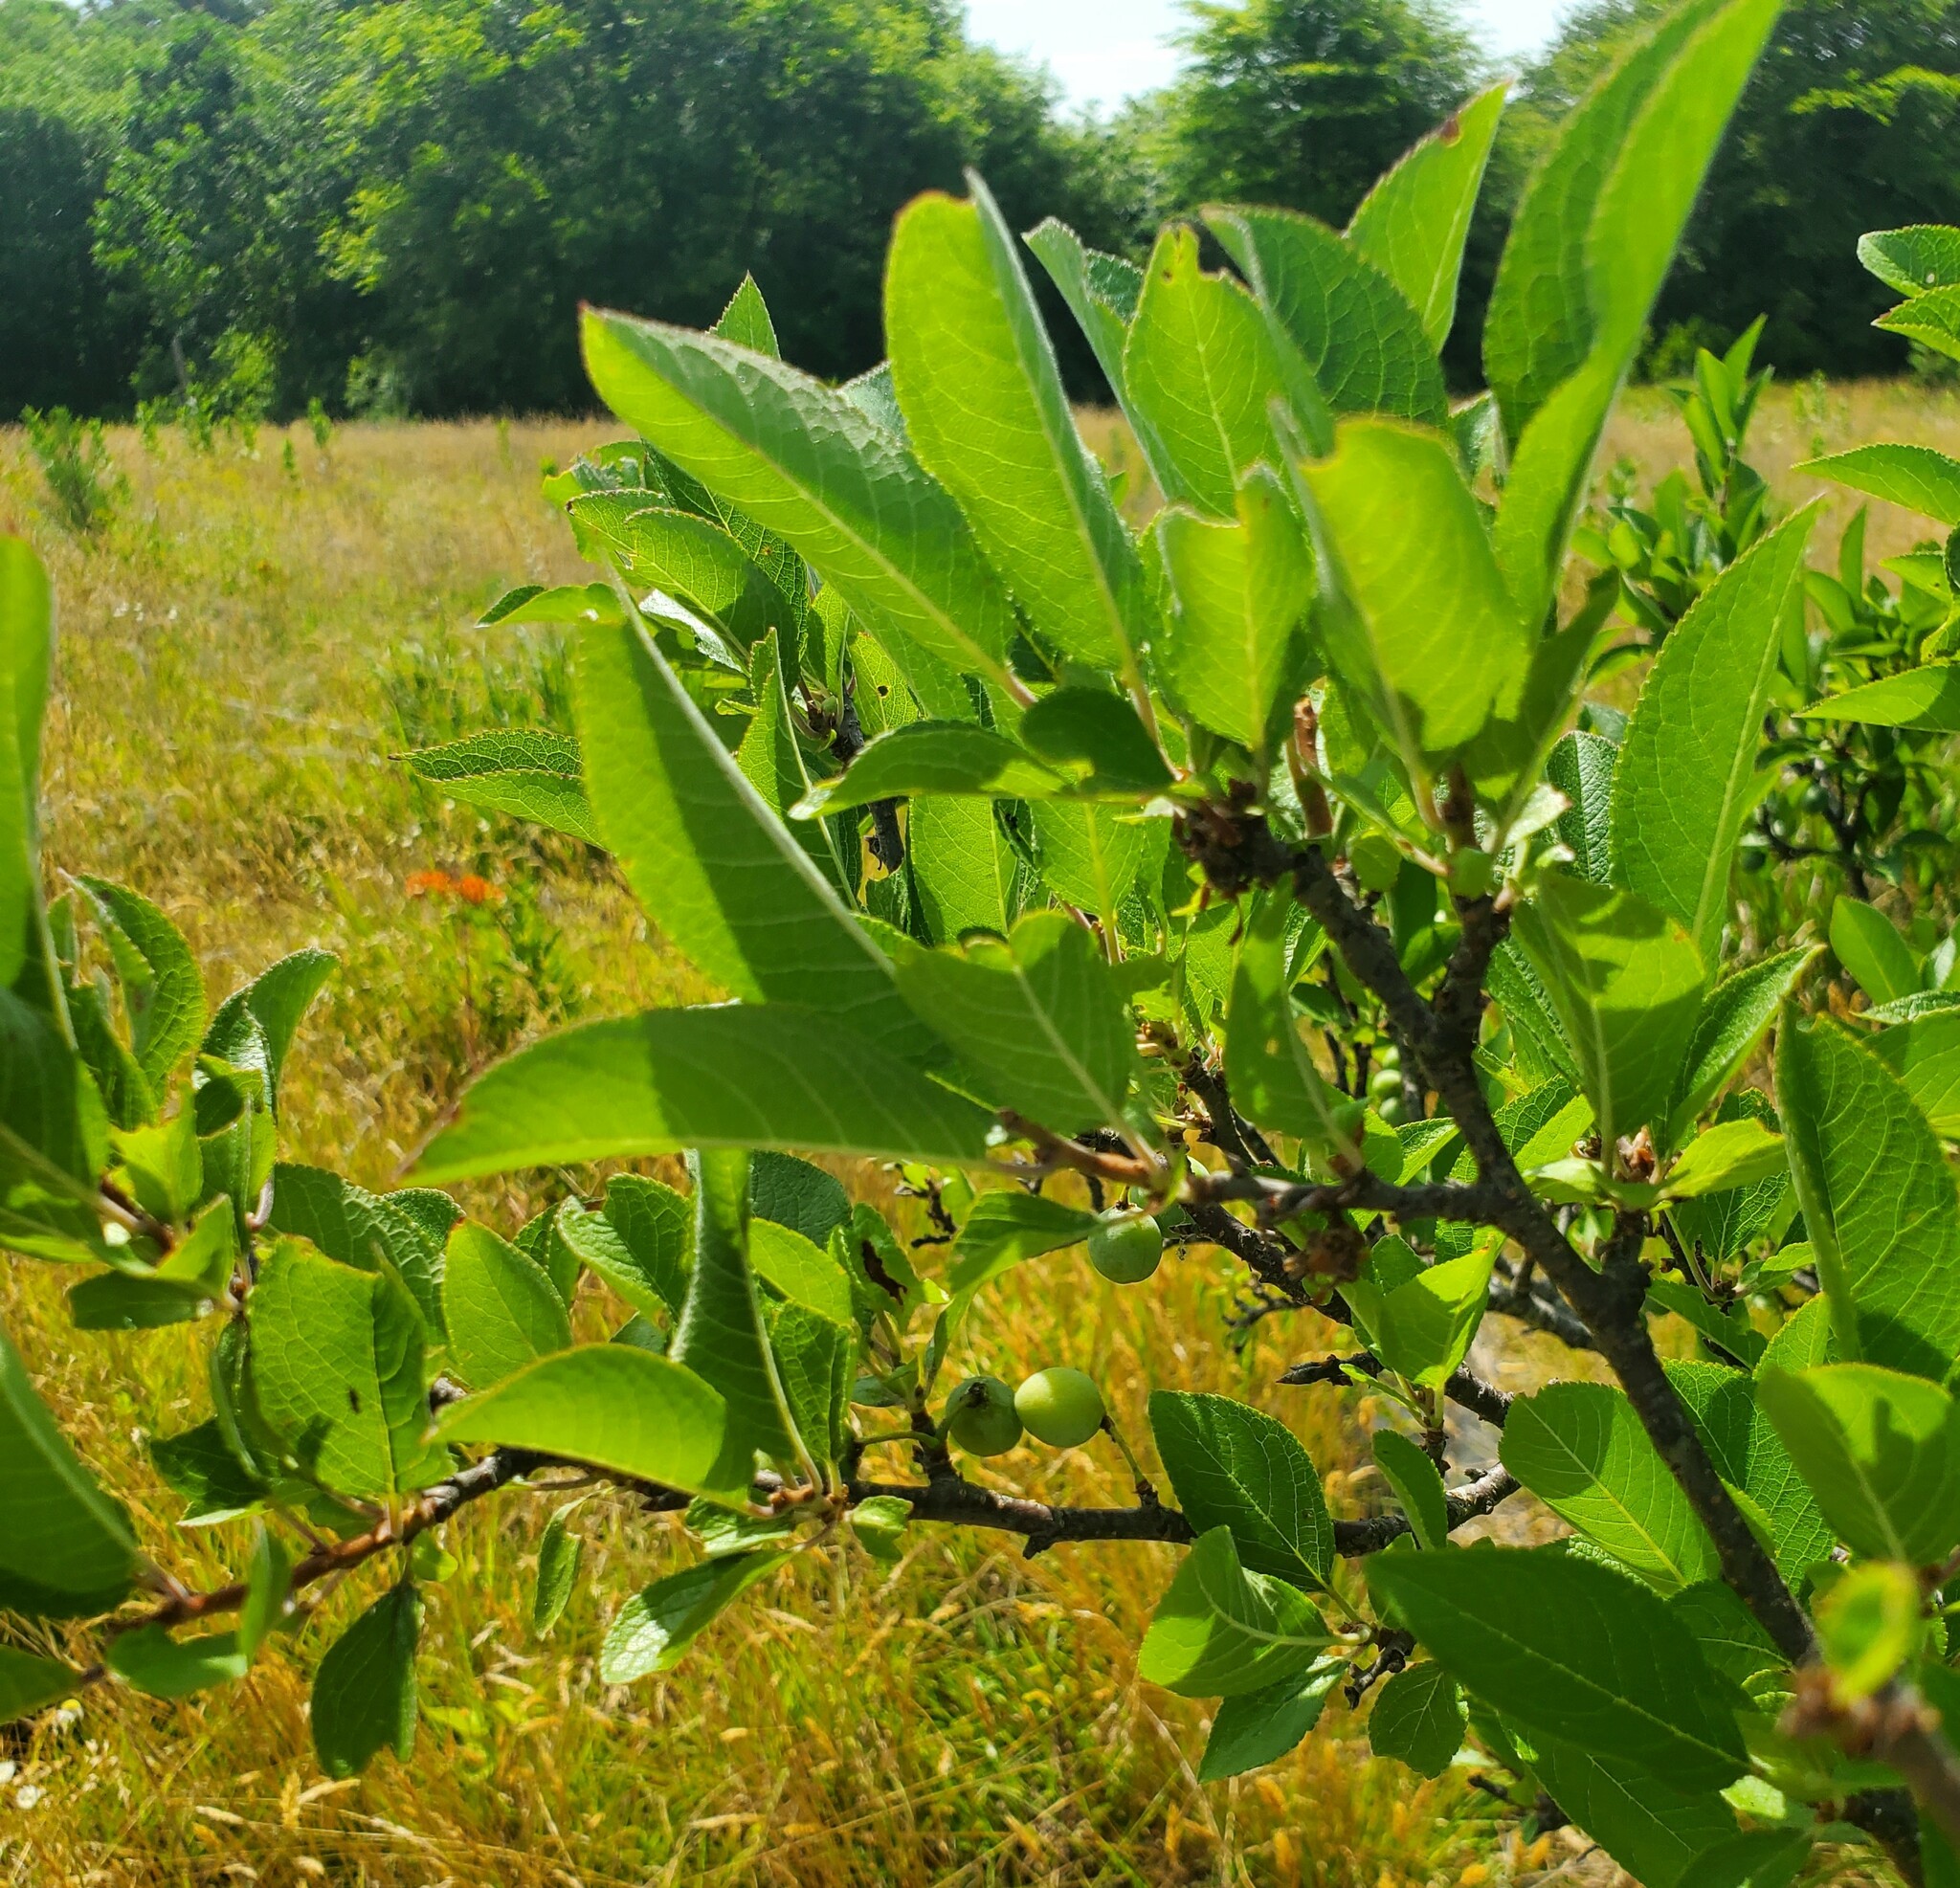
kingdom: Plantae
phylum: Tracheophyta
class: Magnoliopsida
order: Rosales
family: Rosaceae
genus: Prunus
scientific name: Prunus maritima
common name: Beach plum
